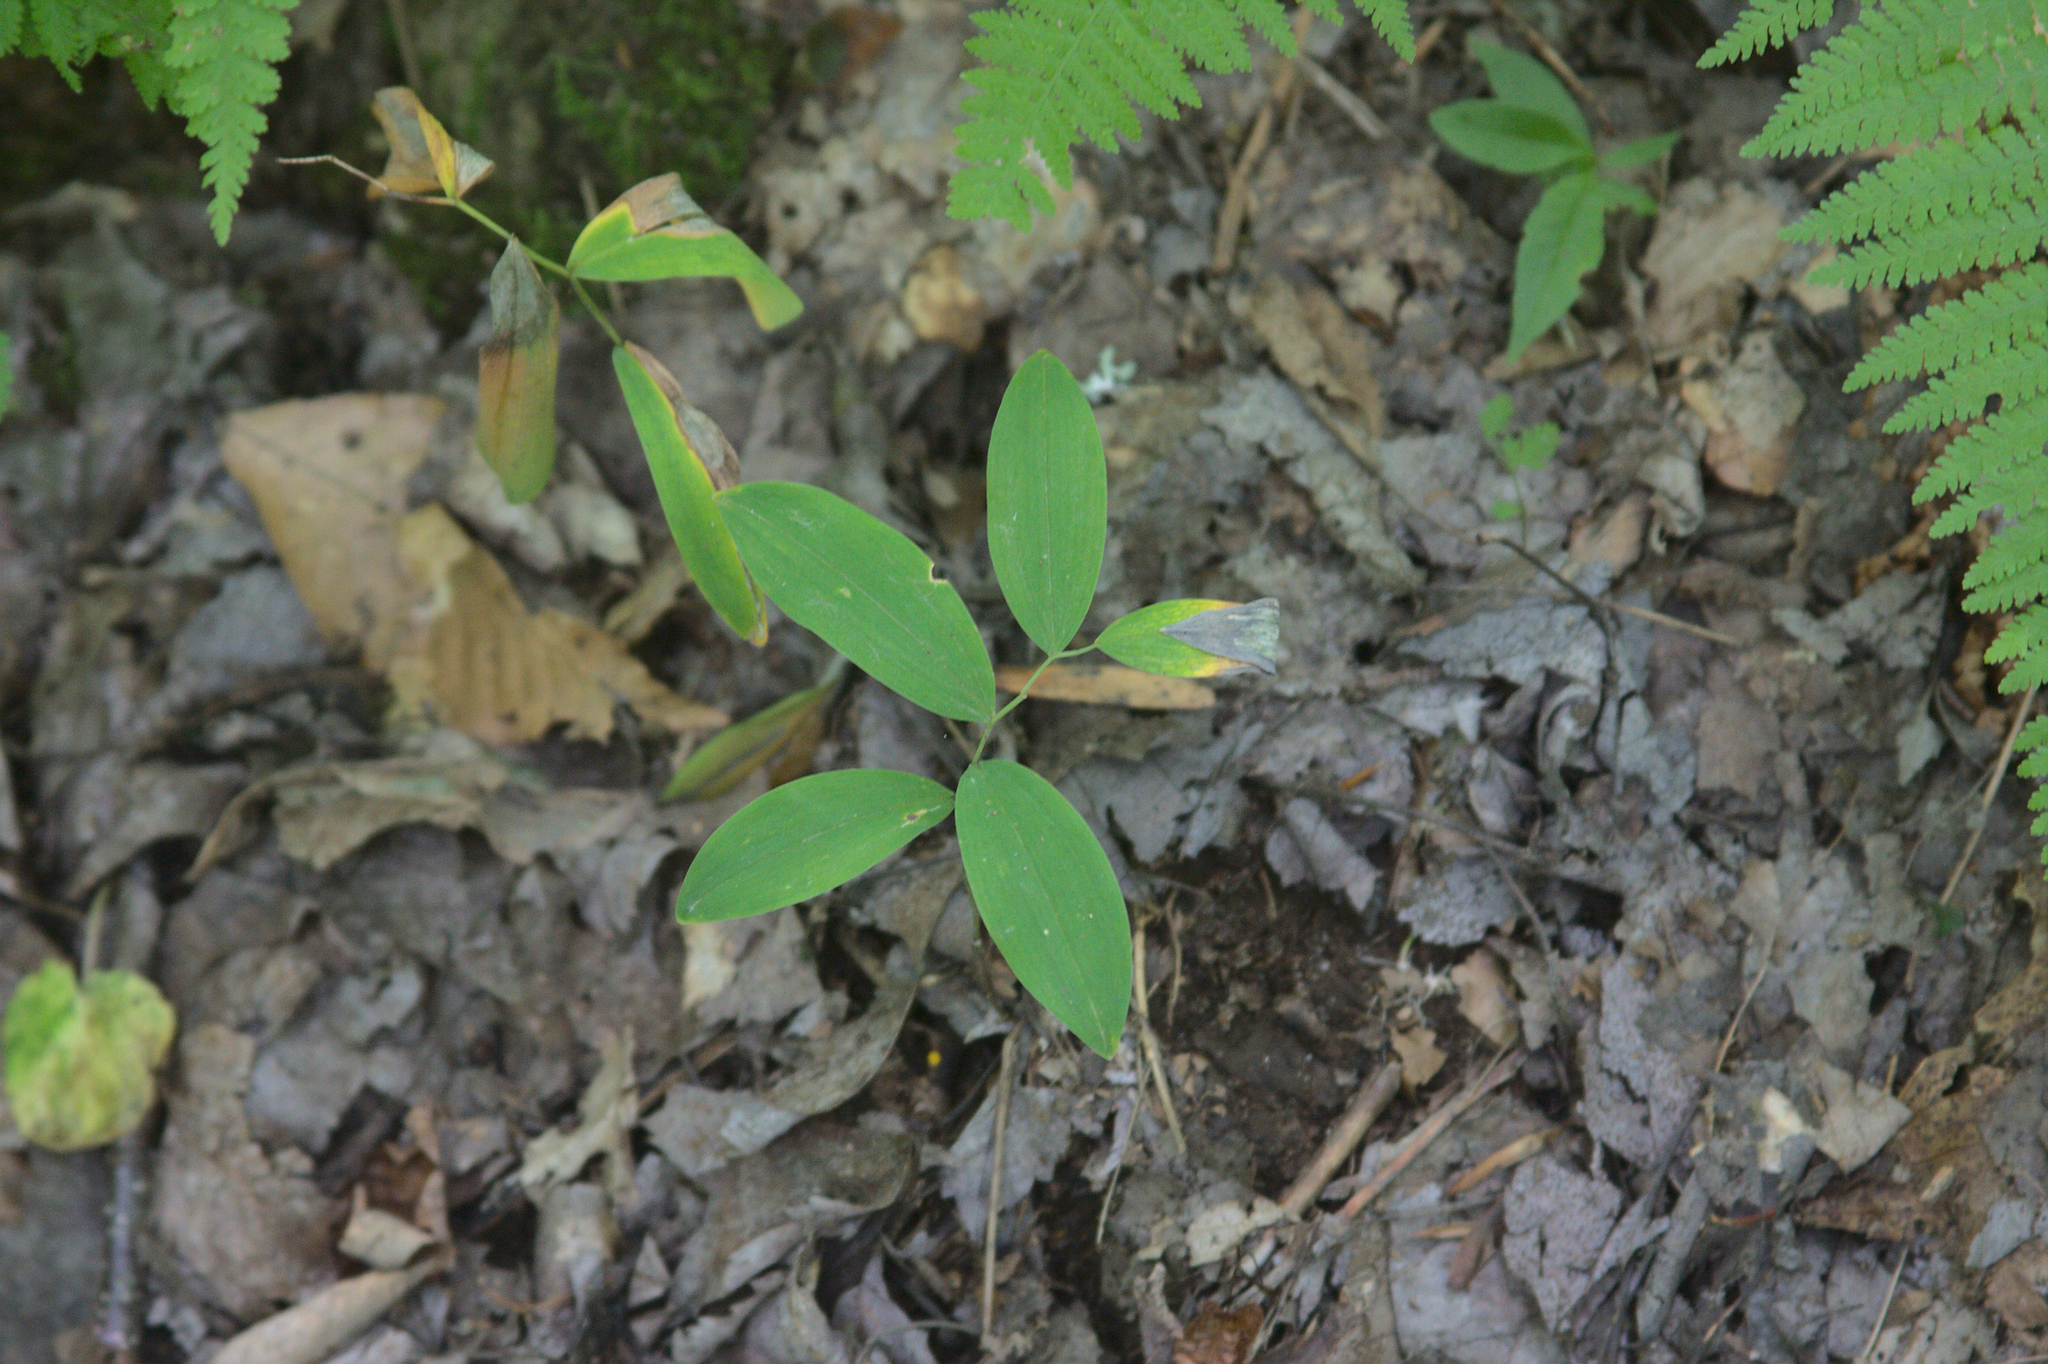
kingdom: Plantae
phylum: Tracheophyta
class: Liliopsida
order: Liliales
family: Colchicaceae
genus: Uvularia
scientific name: Uvularia sessilifolia
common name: Straw-lily
